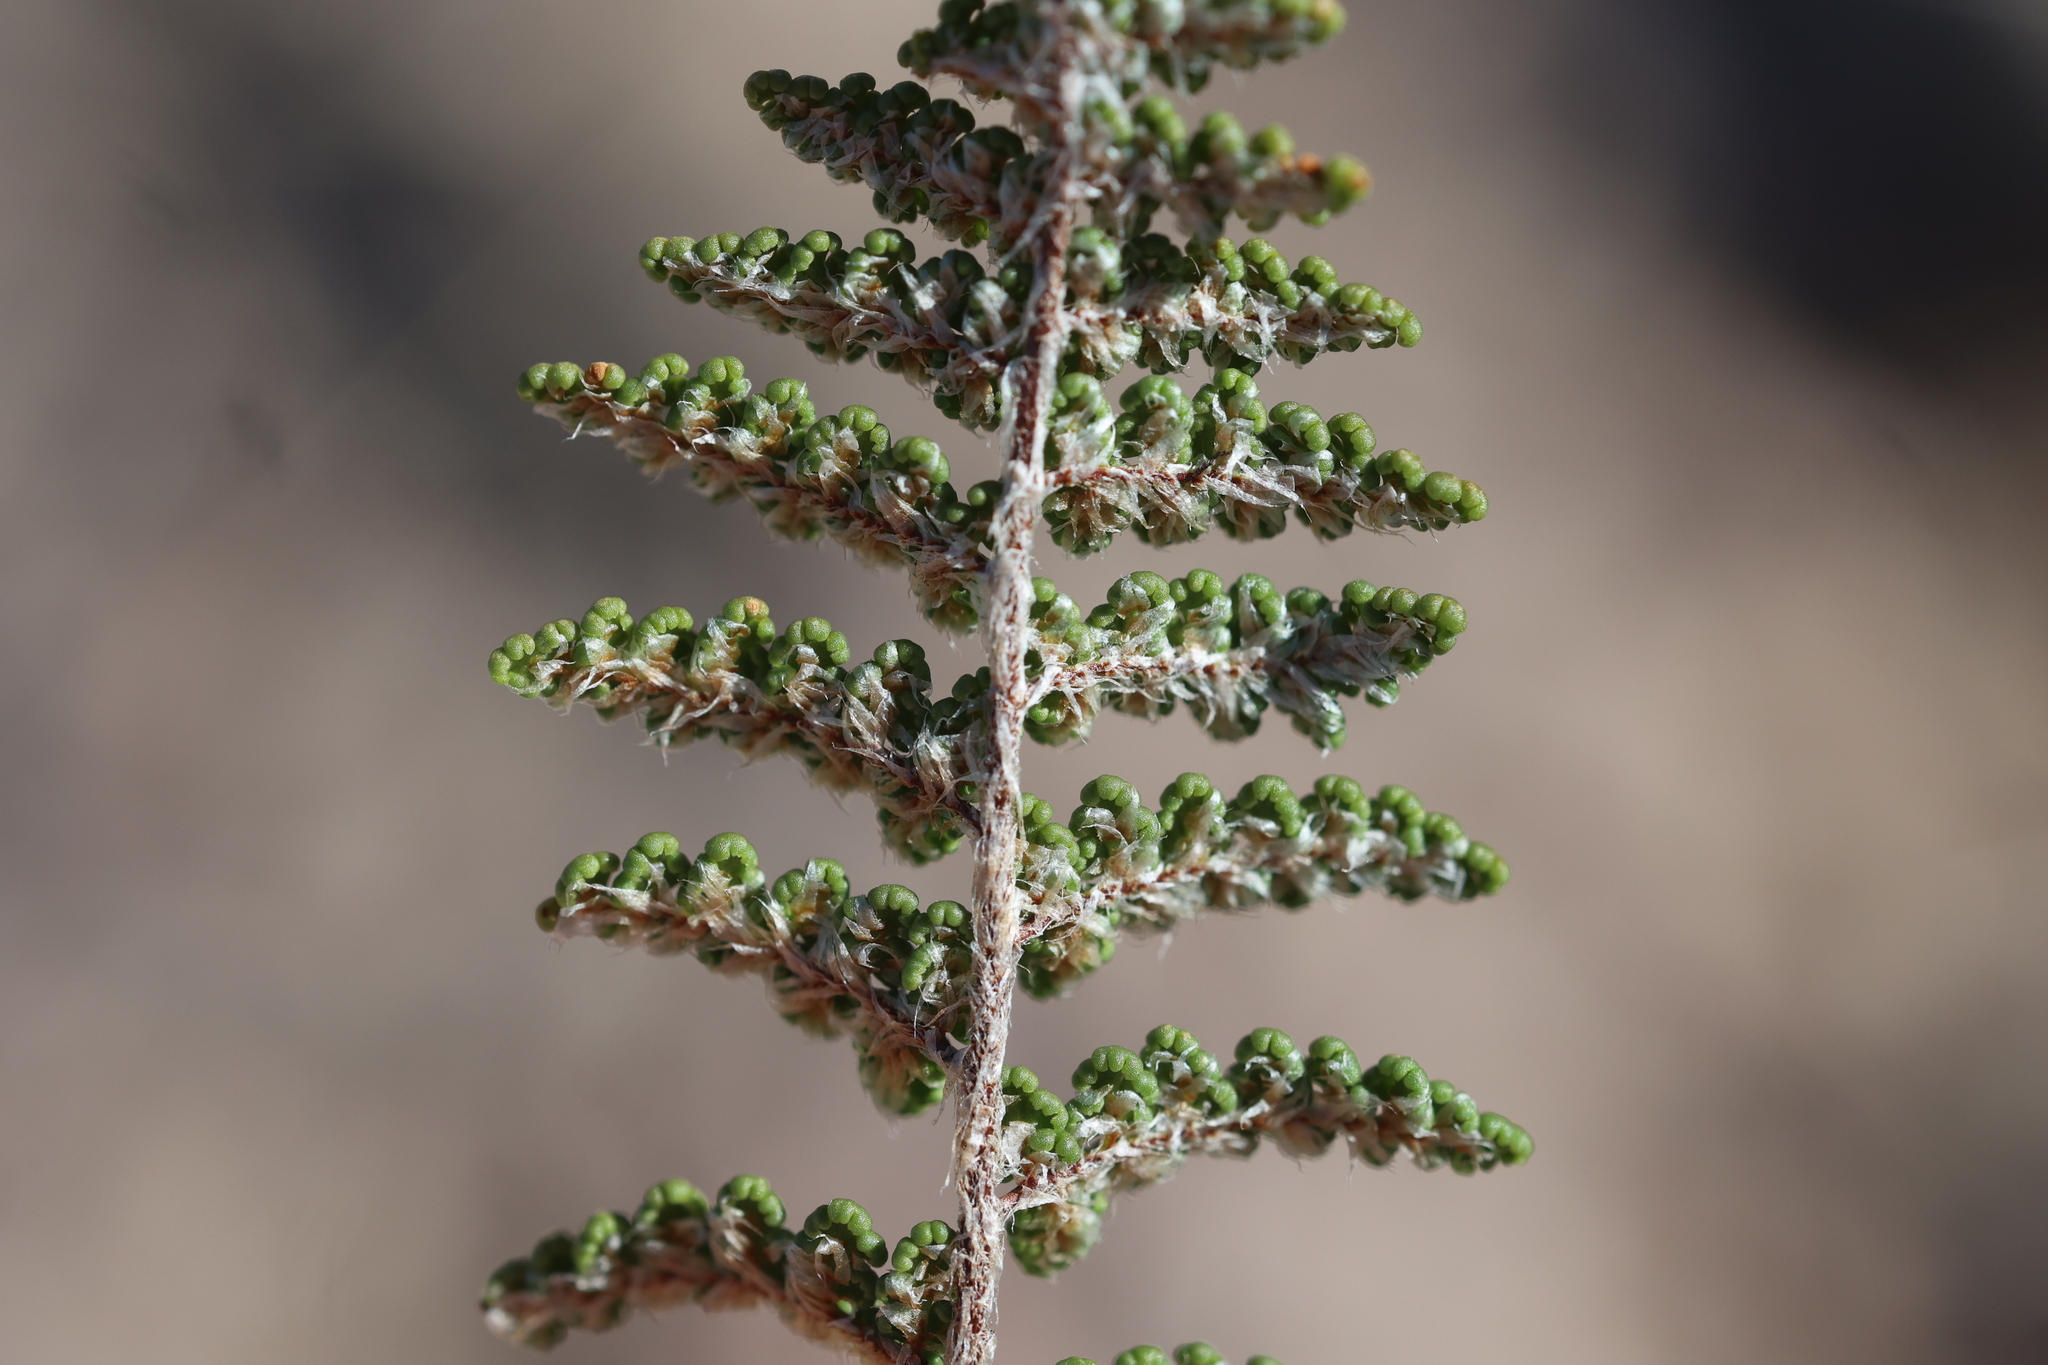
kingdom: Plantae
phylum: Tracheophyta
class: Polypodiopsida
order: Polypodiales
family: Pteridaceae
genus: Myriopteris
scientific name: Myriopteris fendleri
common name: Fendler's lip fern
